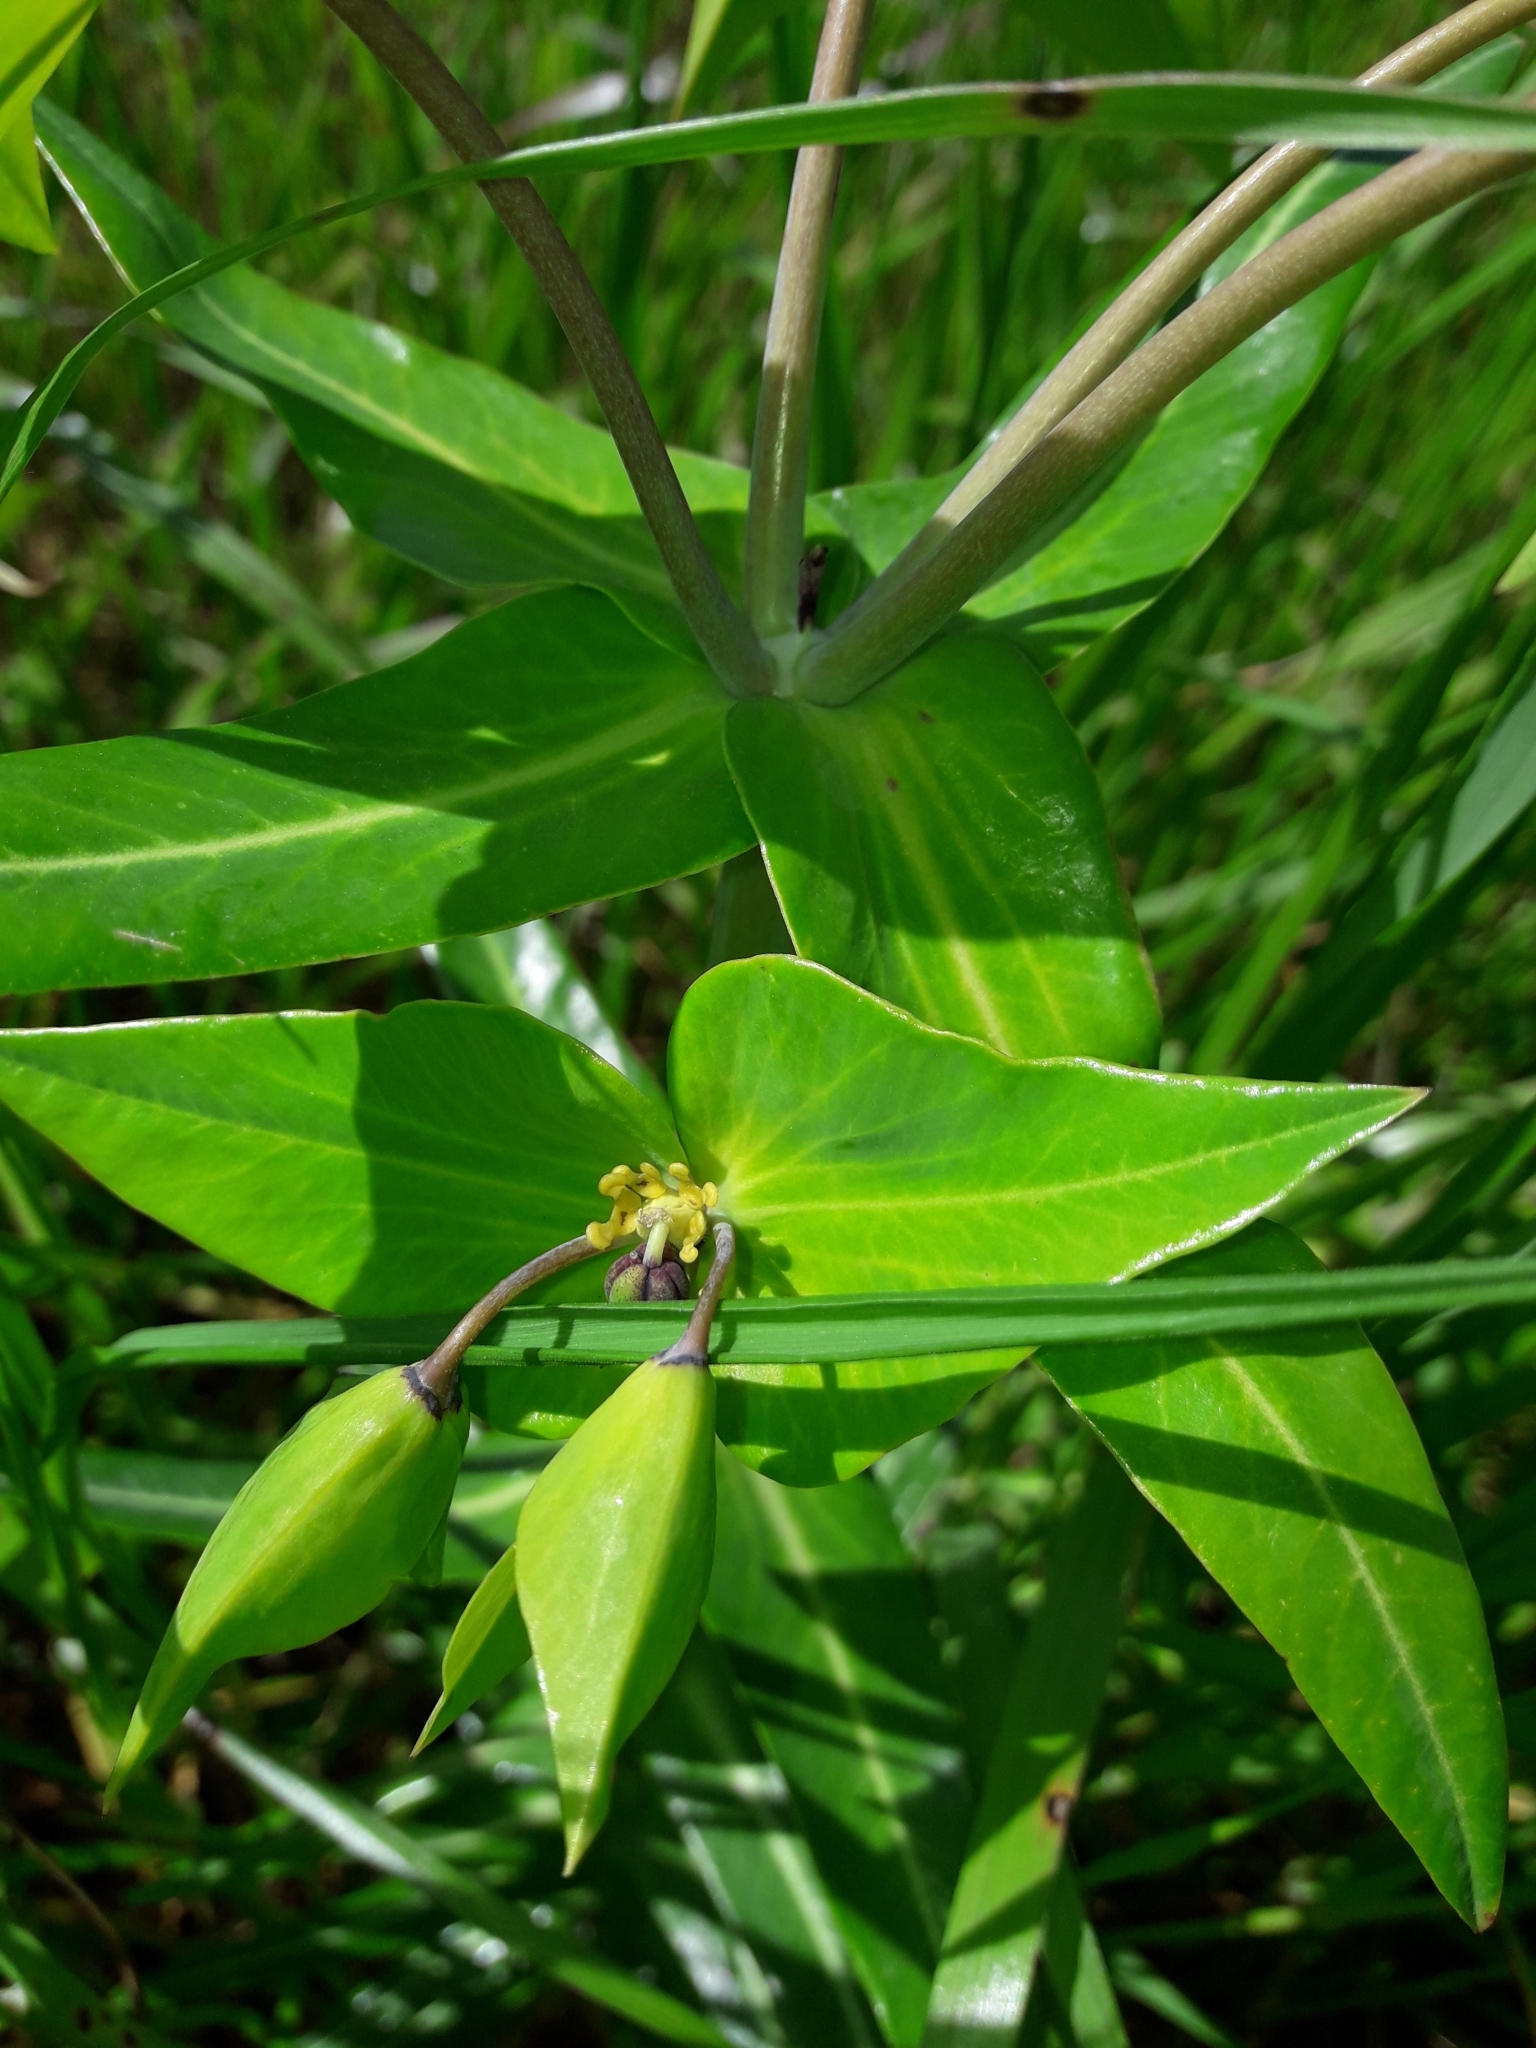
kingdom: Plantae
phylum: Tracheophyta
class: Magnoliopsida
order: Malpighiales
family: Euphorbiaceae
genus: Euphorbia
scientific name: Euphorbia lathyris
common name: Caper spurge
